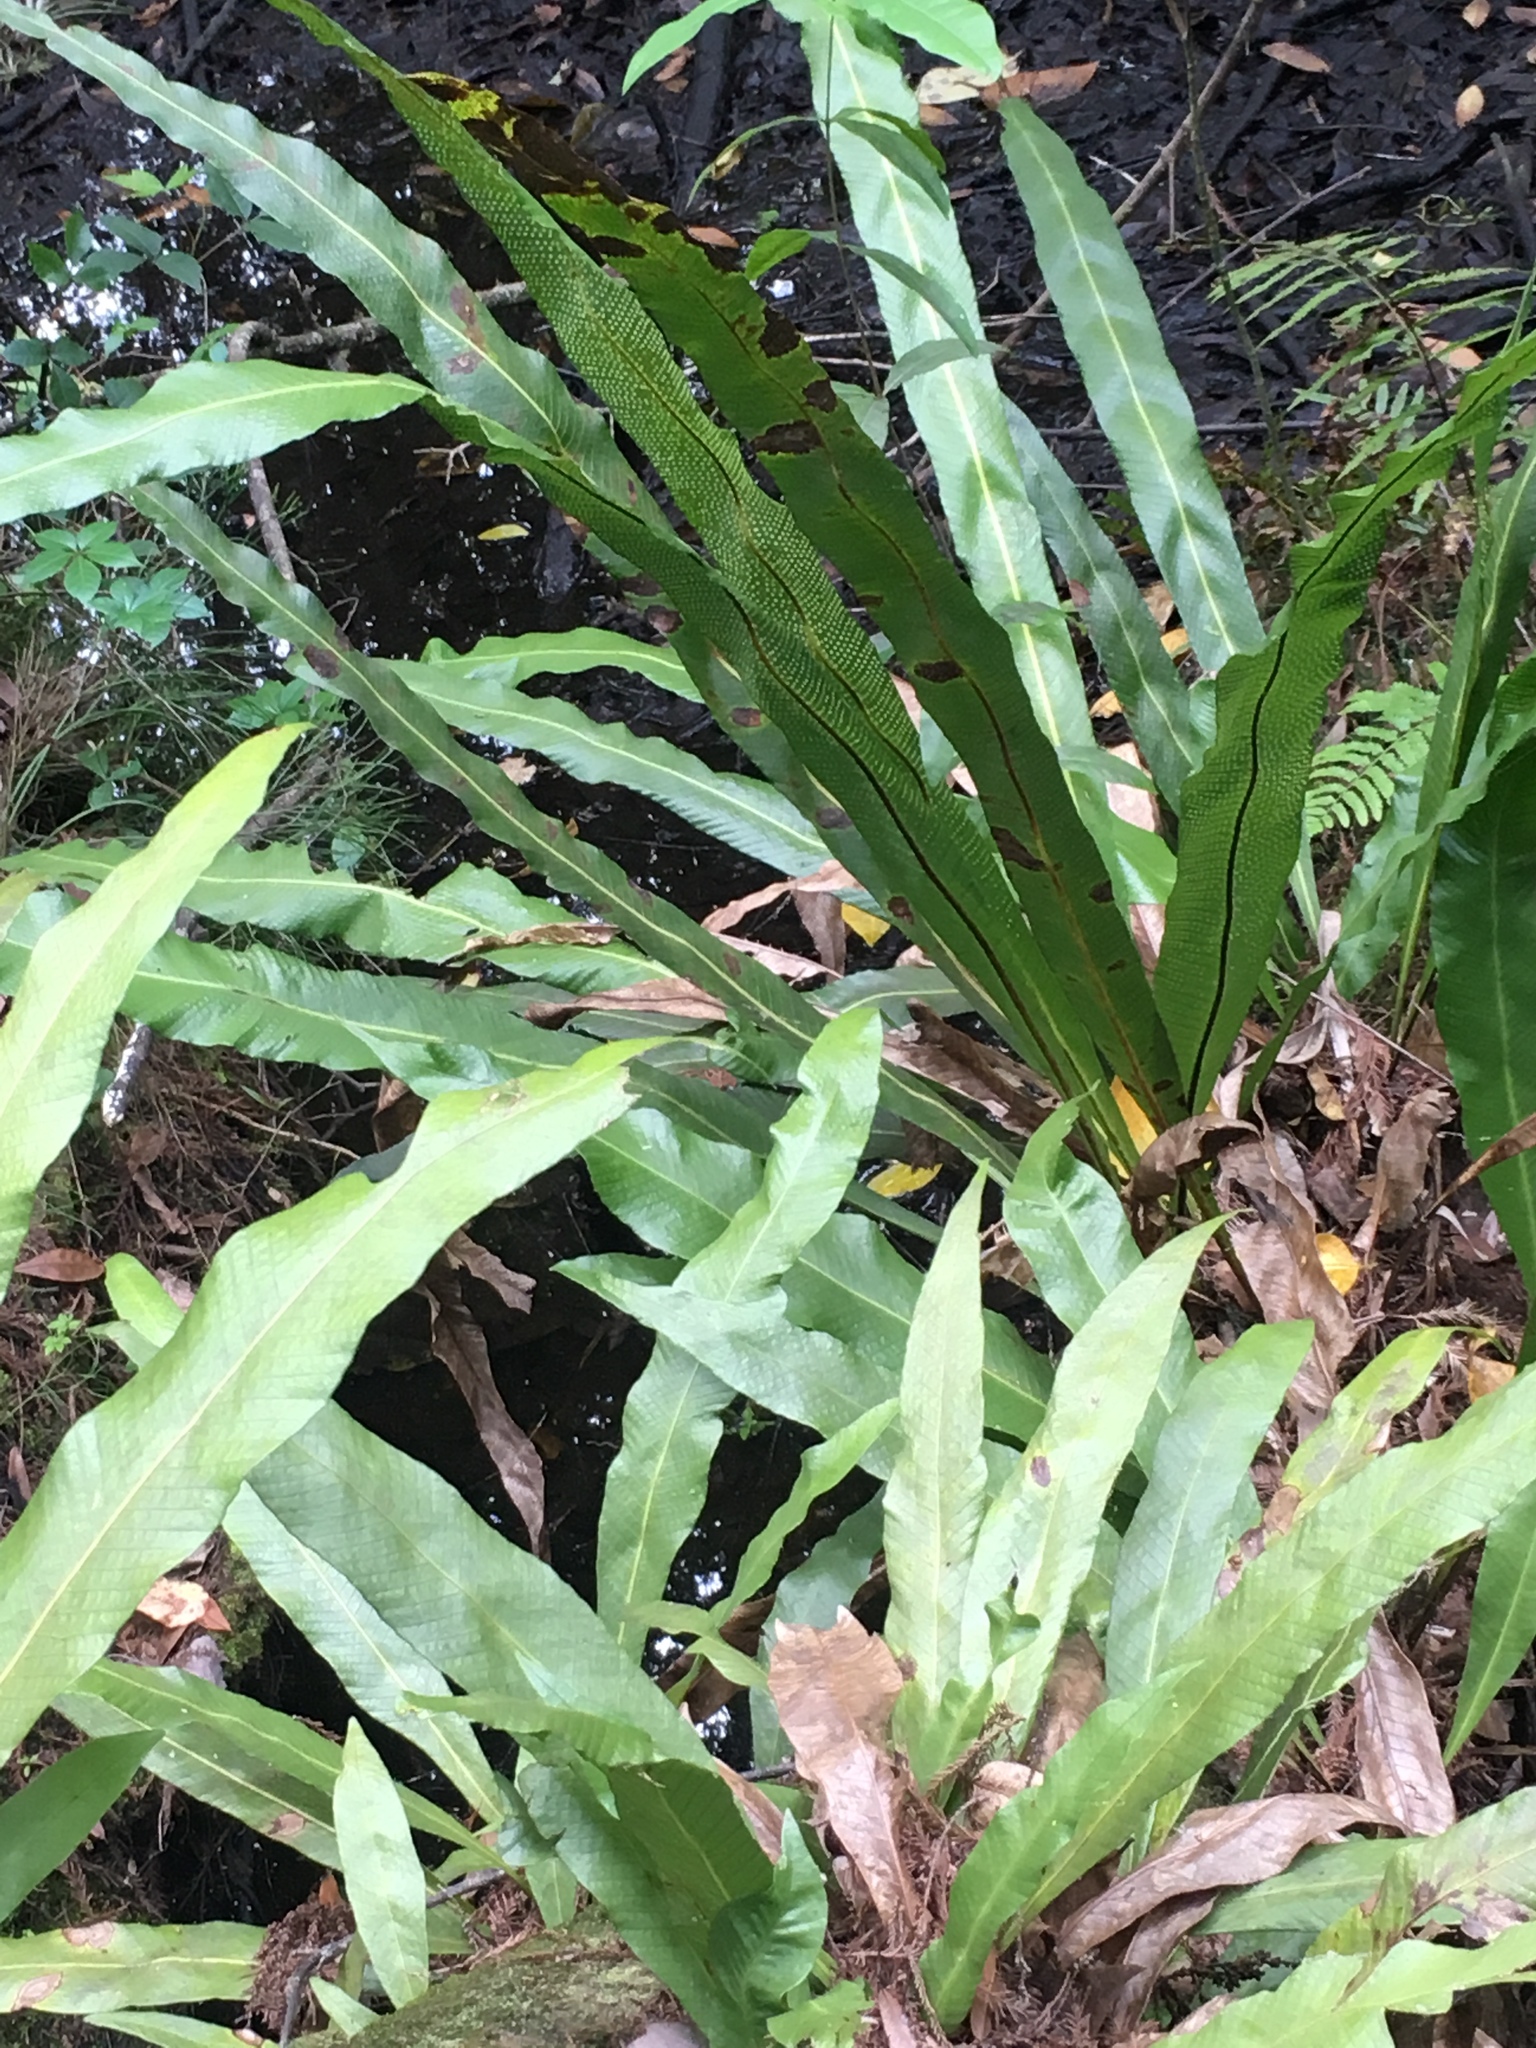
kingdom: Plantae
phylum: Tracheophyta
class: Polypodiopsida
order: Polypodiales
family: Polypodiaceae
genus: Campyloneurum
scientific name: Campyloneurum phyllitidis
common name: Cow-tongue fern
